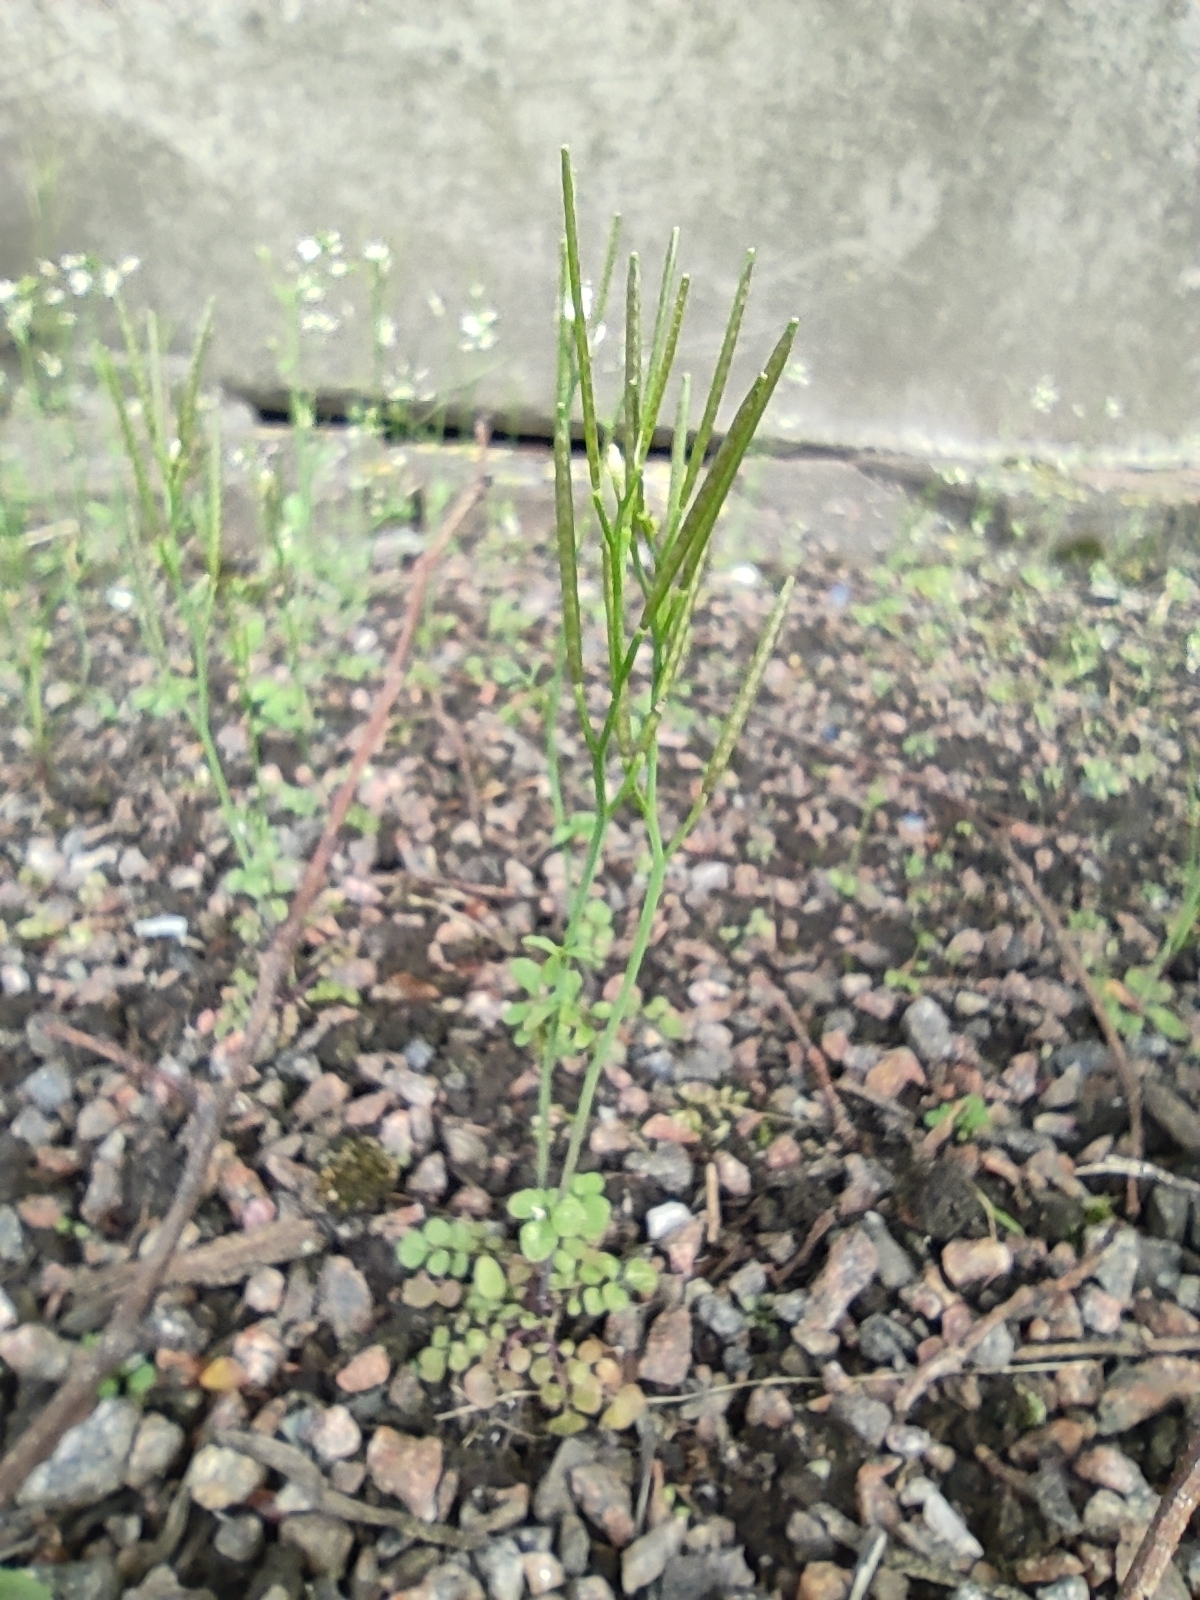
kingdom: Plantae
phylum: Tracheophyta
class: Magnoliopsida
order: Brassicales
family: Brassicaceae
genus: Cardamine
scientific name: Cardamine hirsuta
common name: Hairy bittercress
